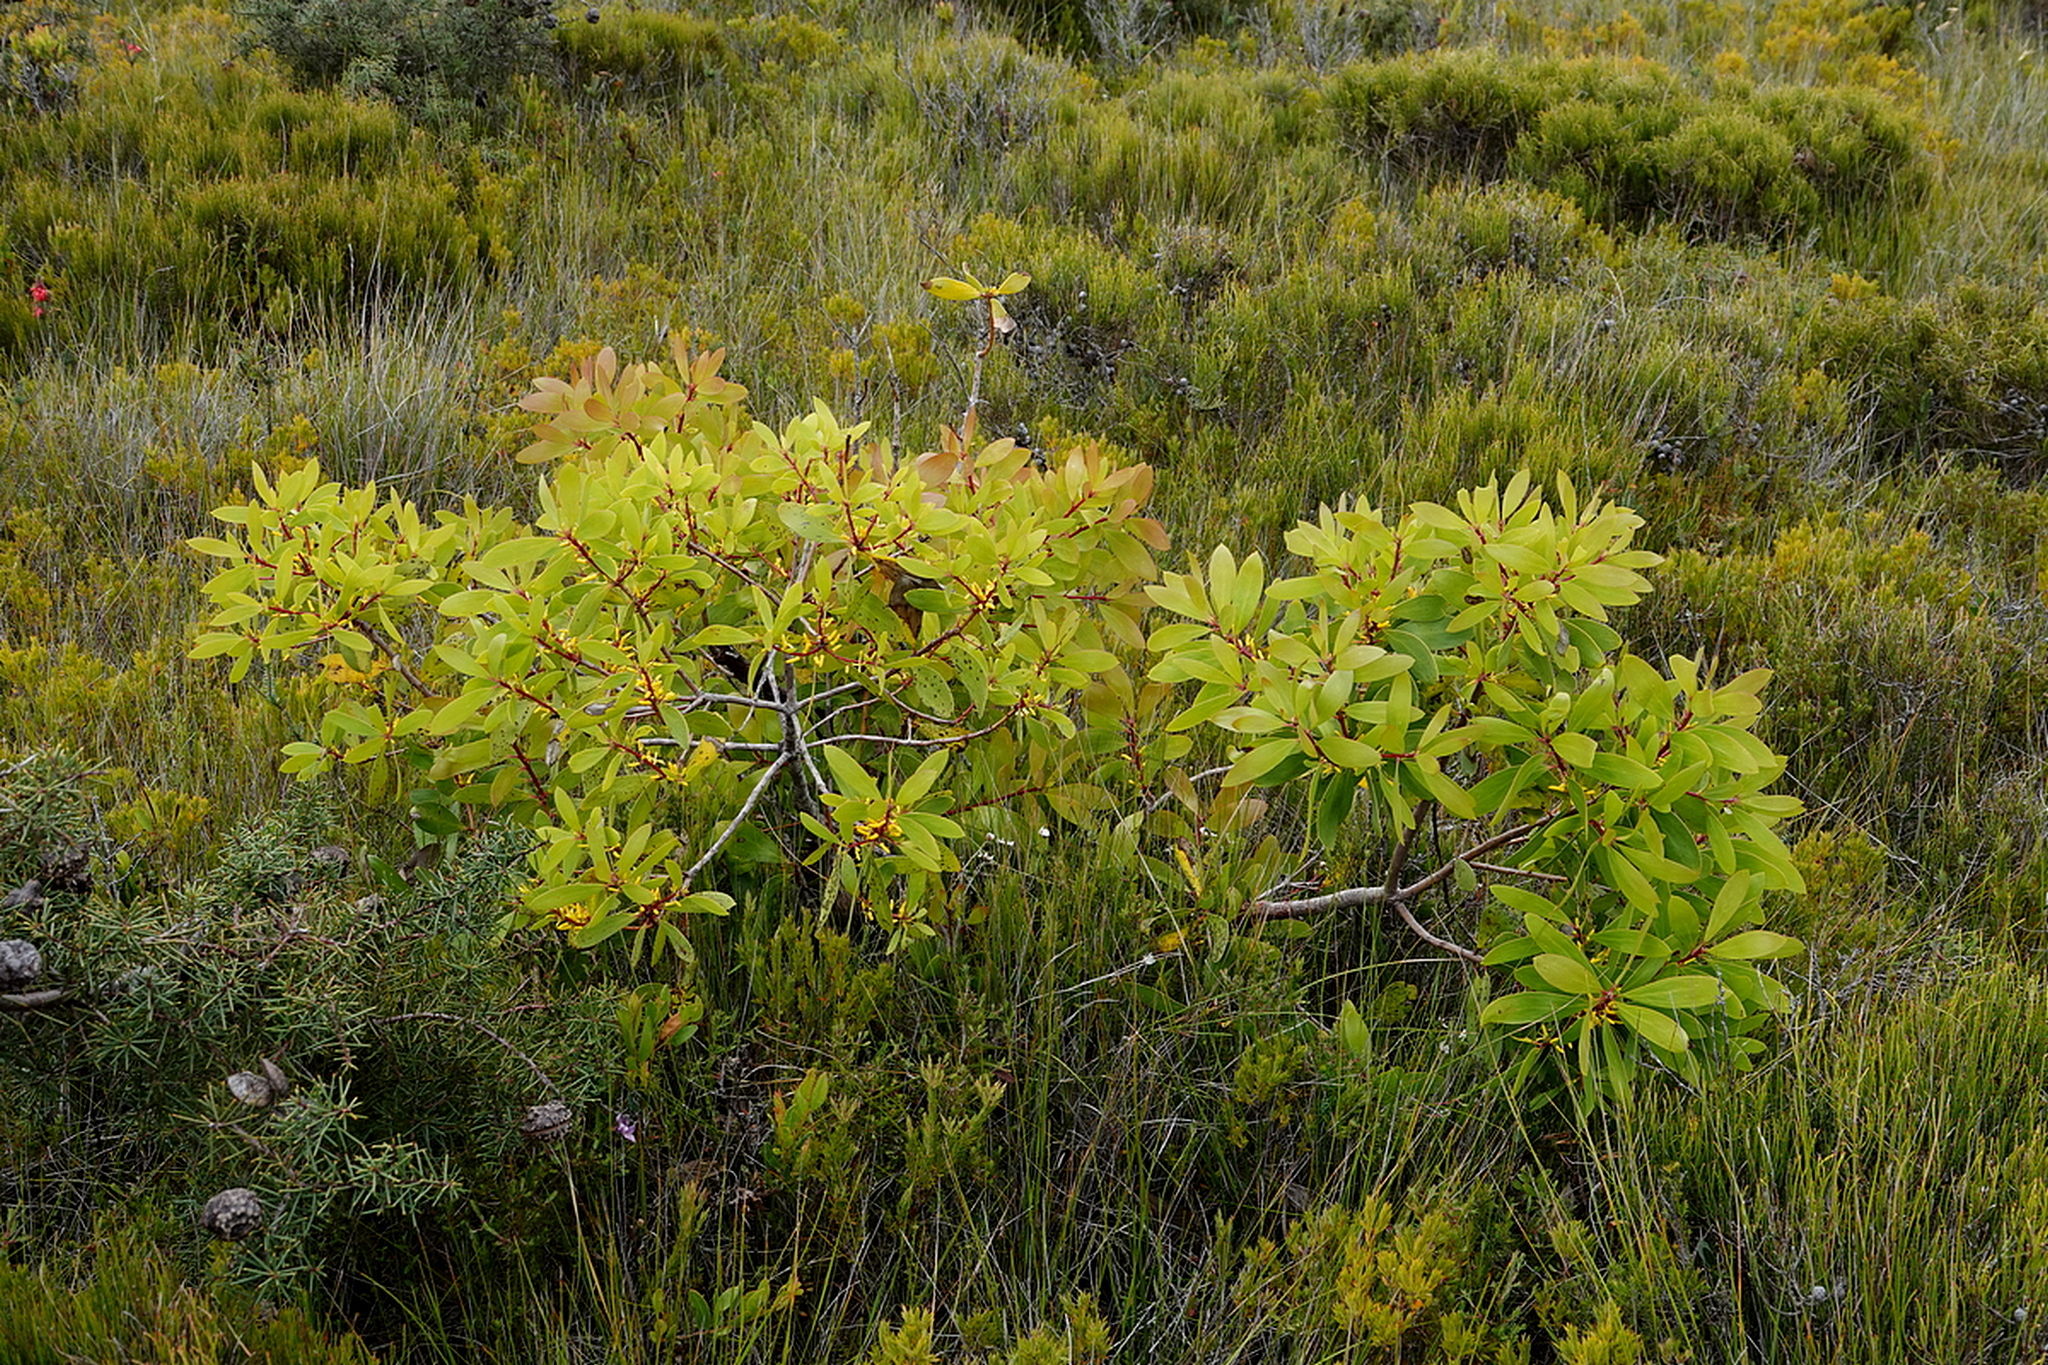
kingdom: Plantae
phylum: Tracheophyta
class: Magnoliopsida
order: Proteales
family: Proteaceae
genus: Persoonia
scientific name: Persoonia levis
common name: Smooth geebung
